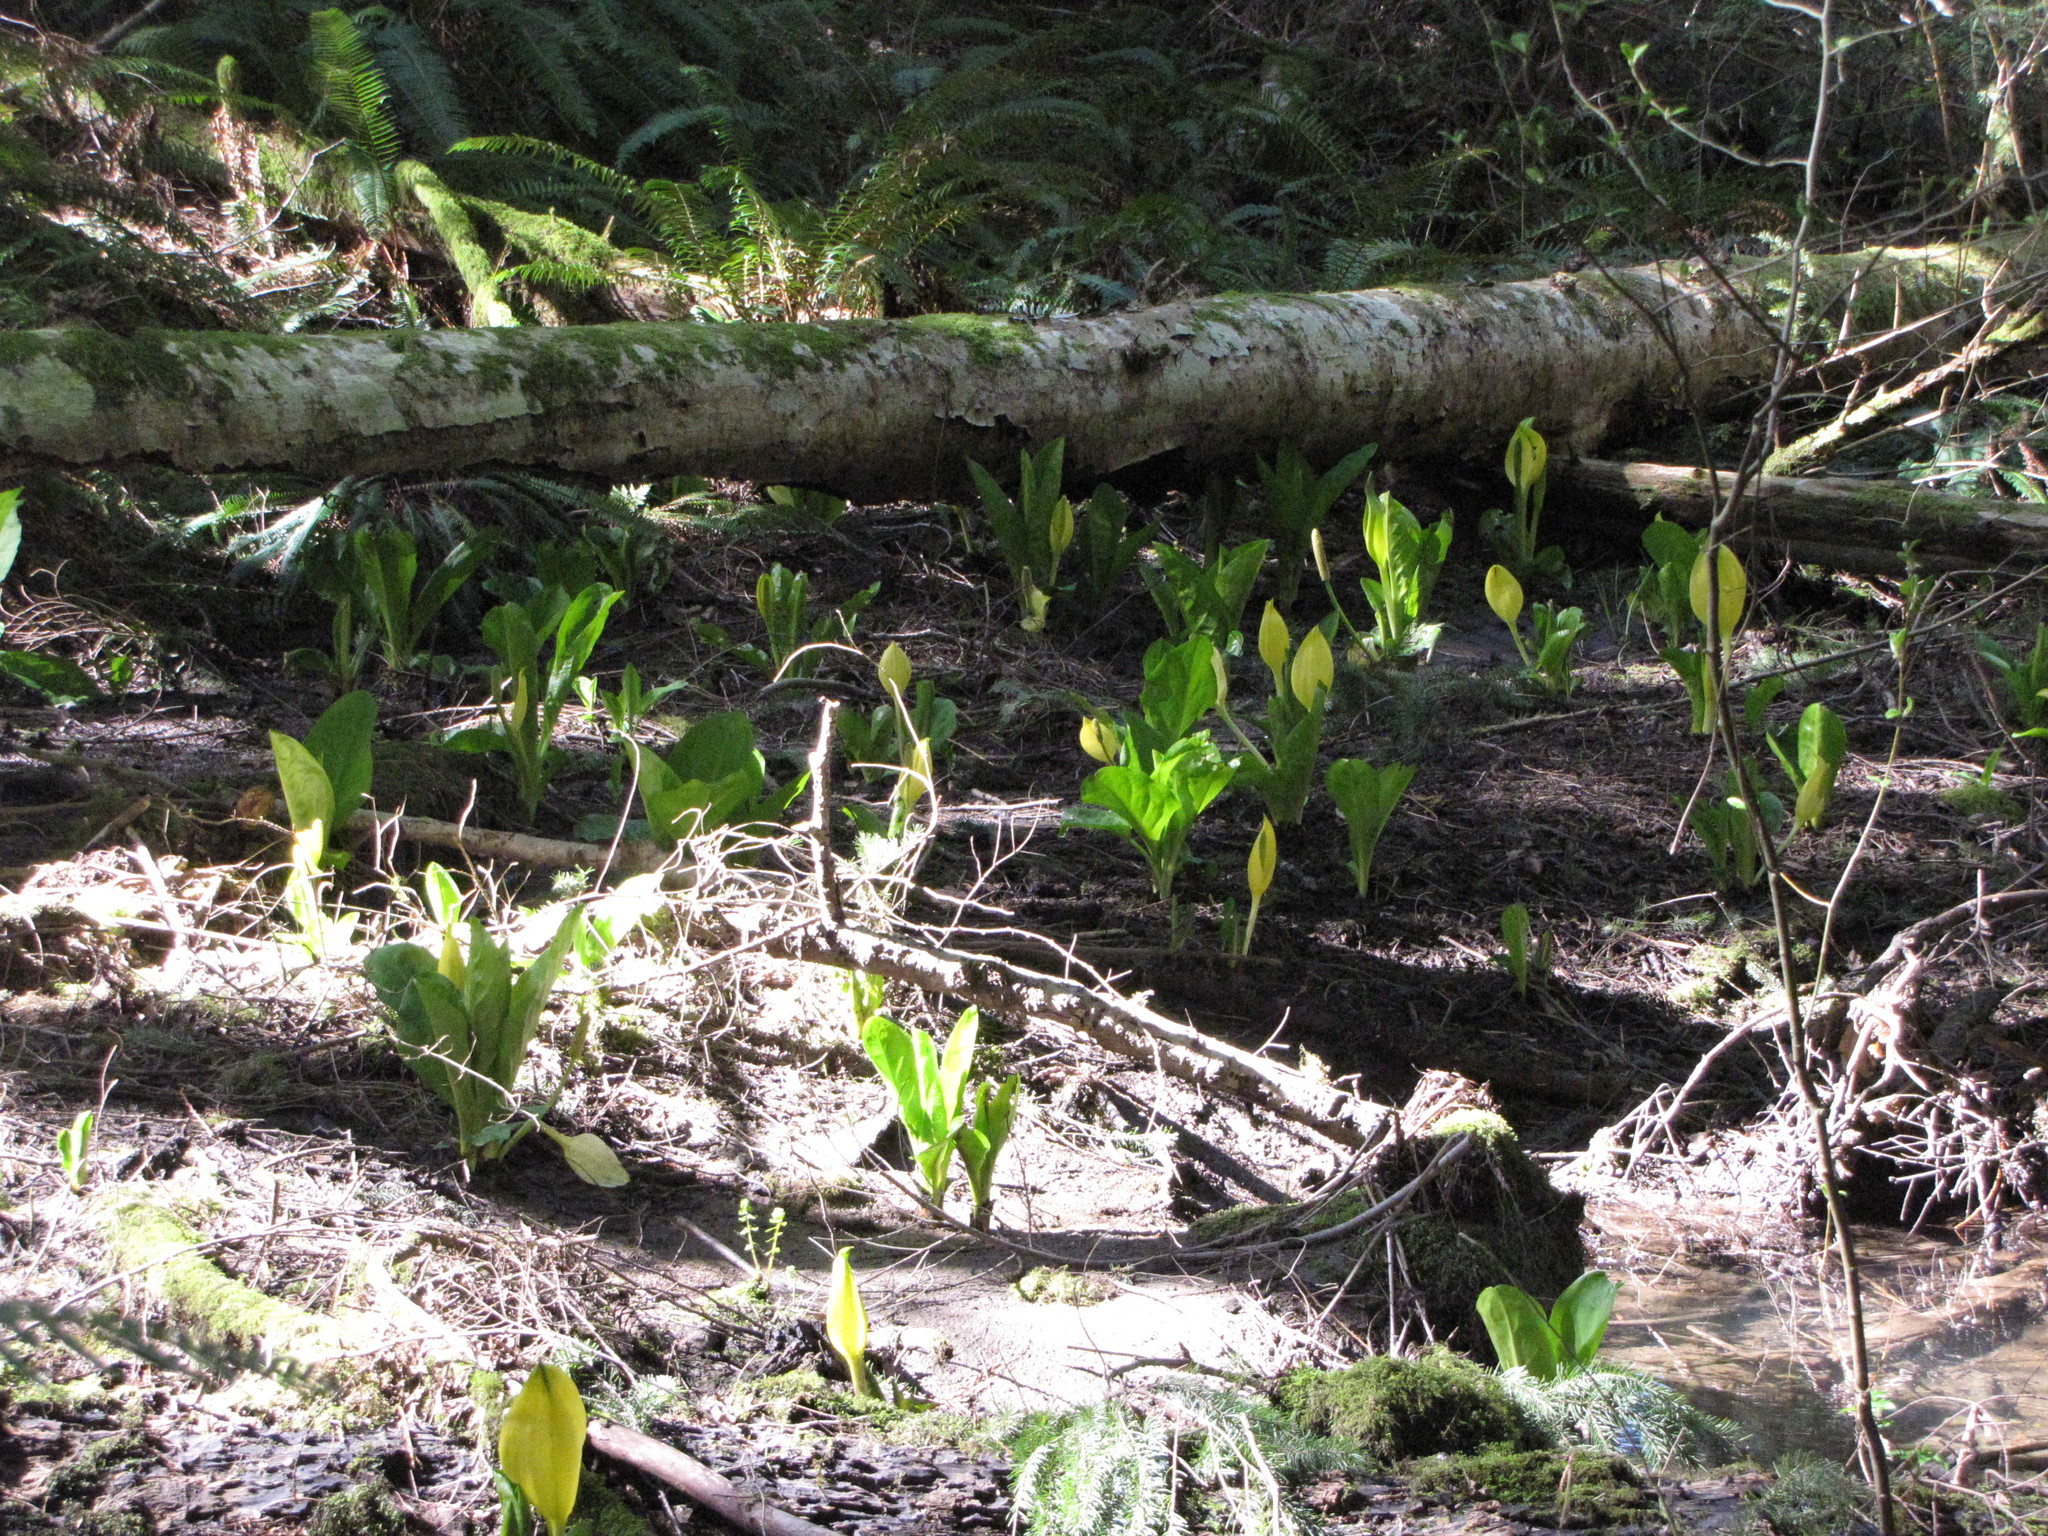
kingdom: Plantae
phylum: Tracheophyta
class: Liliopsida
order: Alismatales
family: Araceae
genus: Lysichiton
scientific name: Lysichiton americanus
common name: American skunk cabbage
